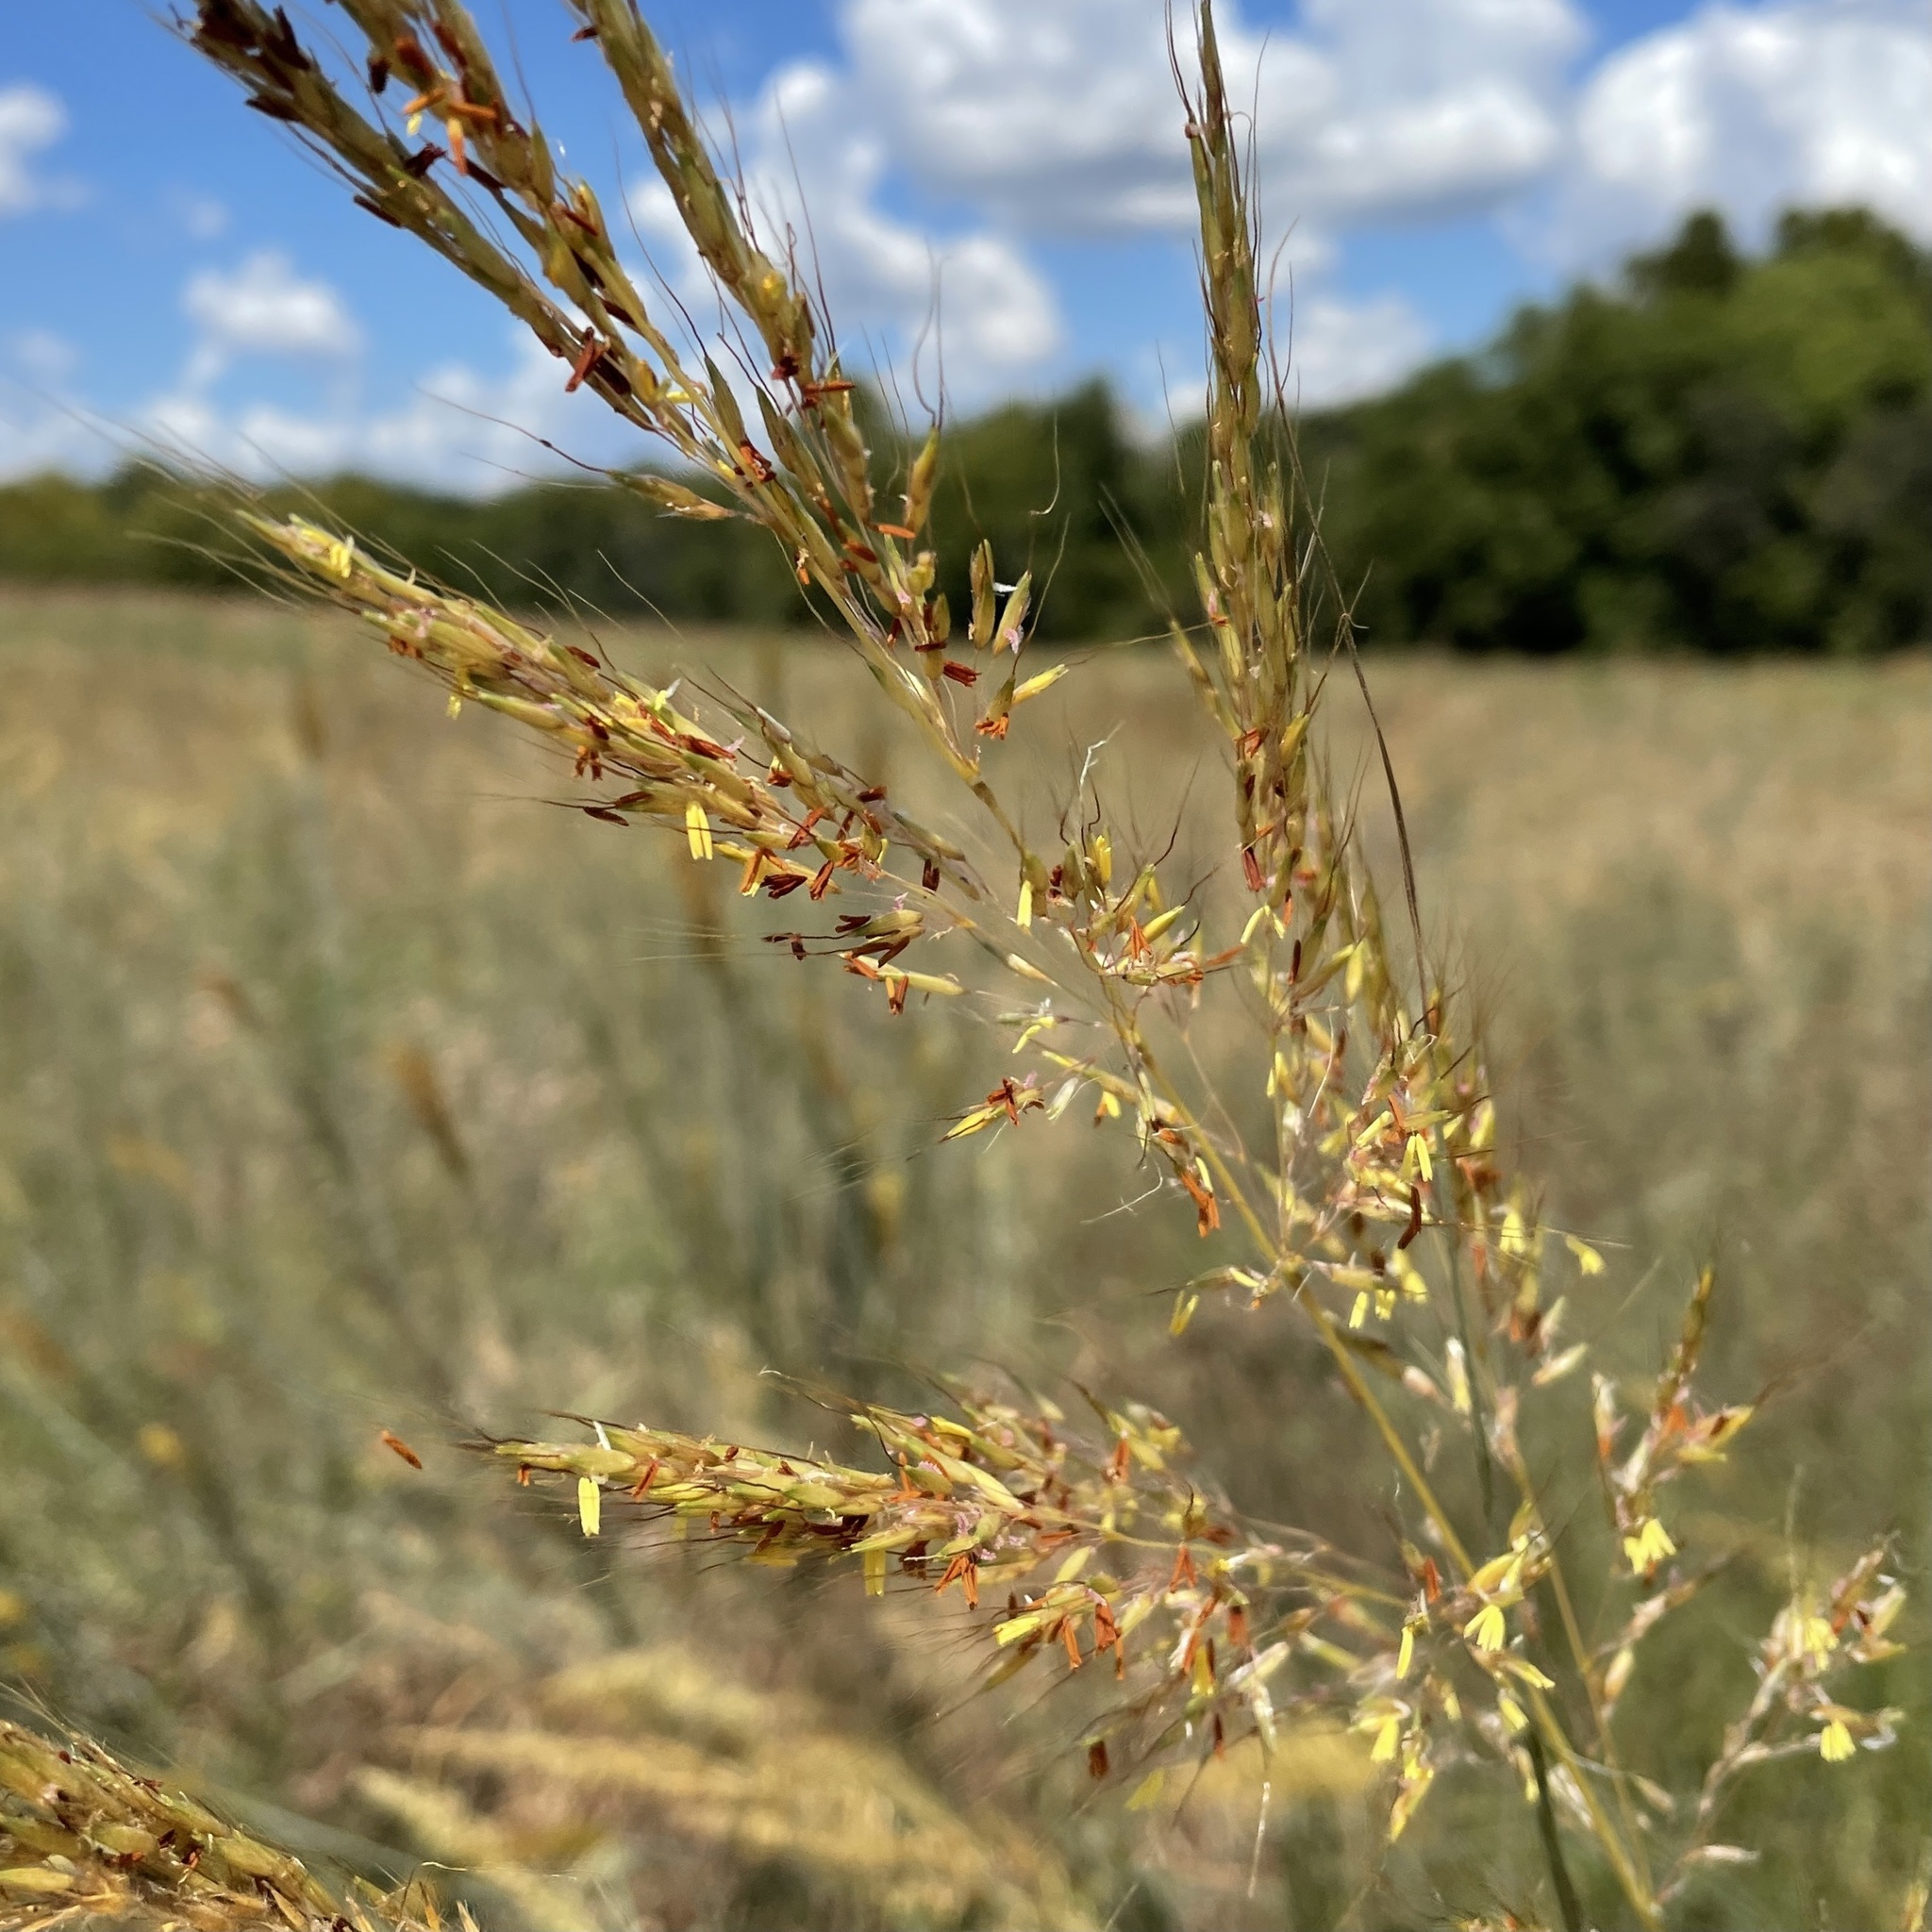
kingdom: Plantae
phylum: Tracheophyta
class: Liliopsida
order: Poales
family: Poaceae
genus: Sorghastrum
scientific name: Sorghastrum nutans
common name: Indian grass
